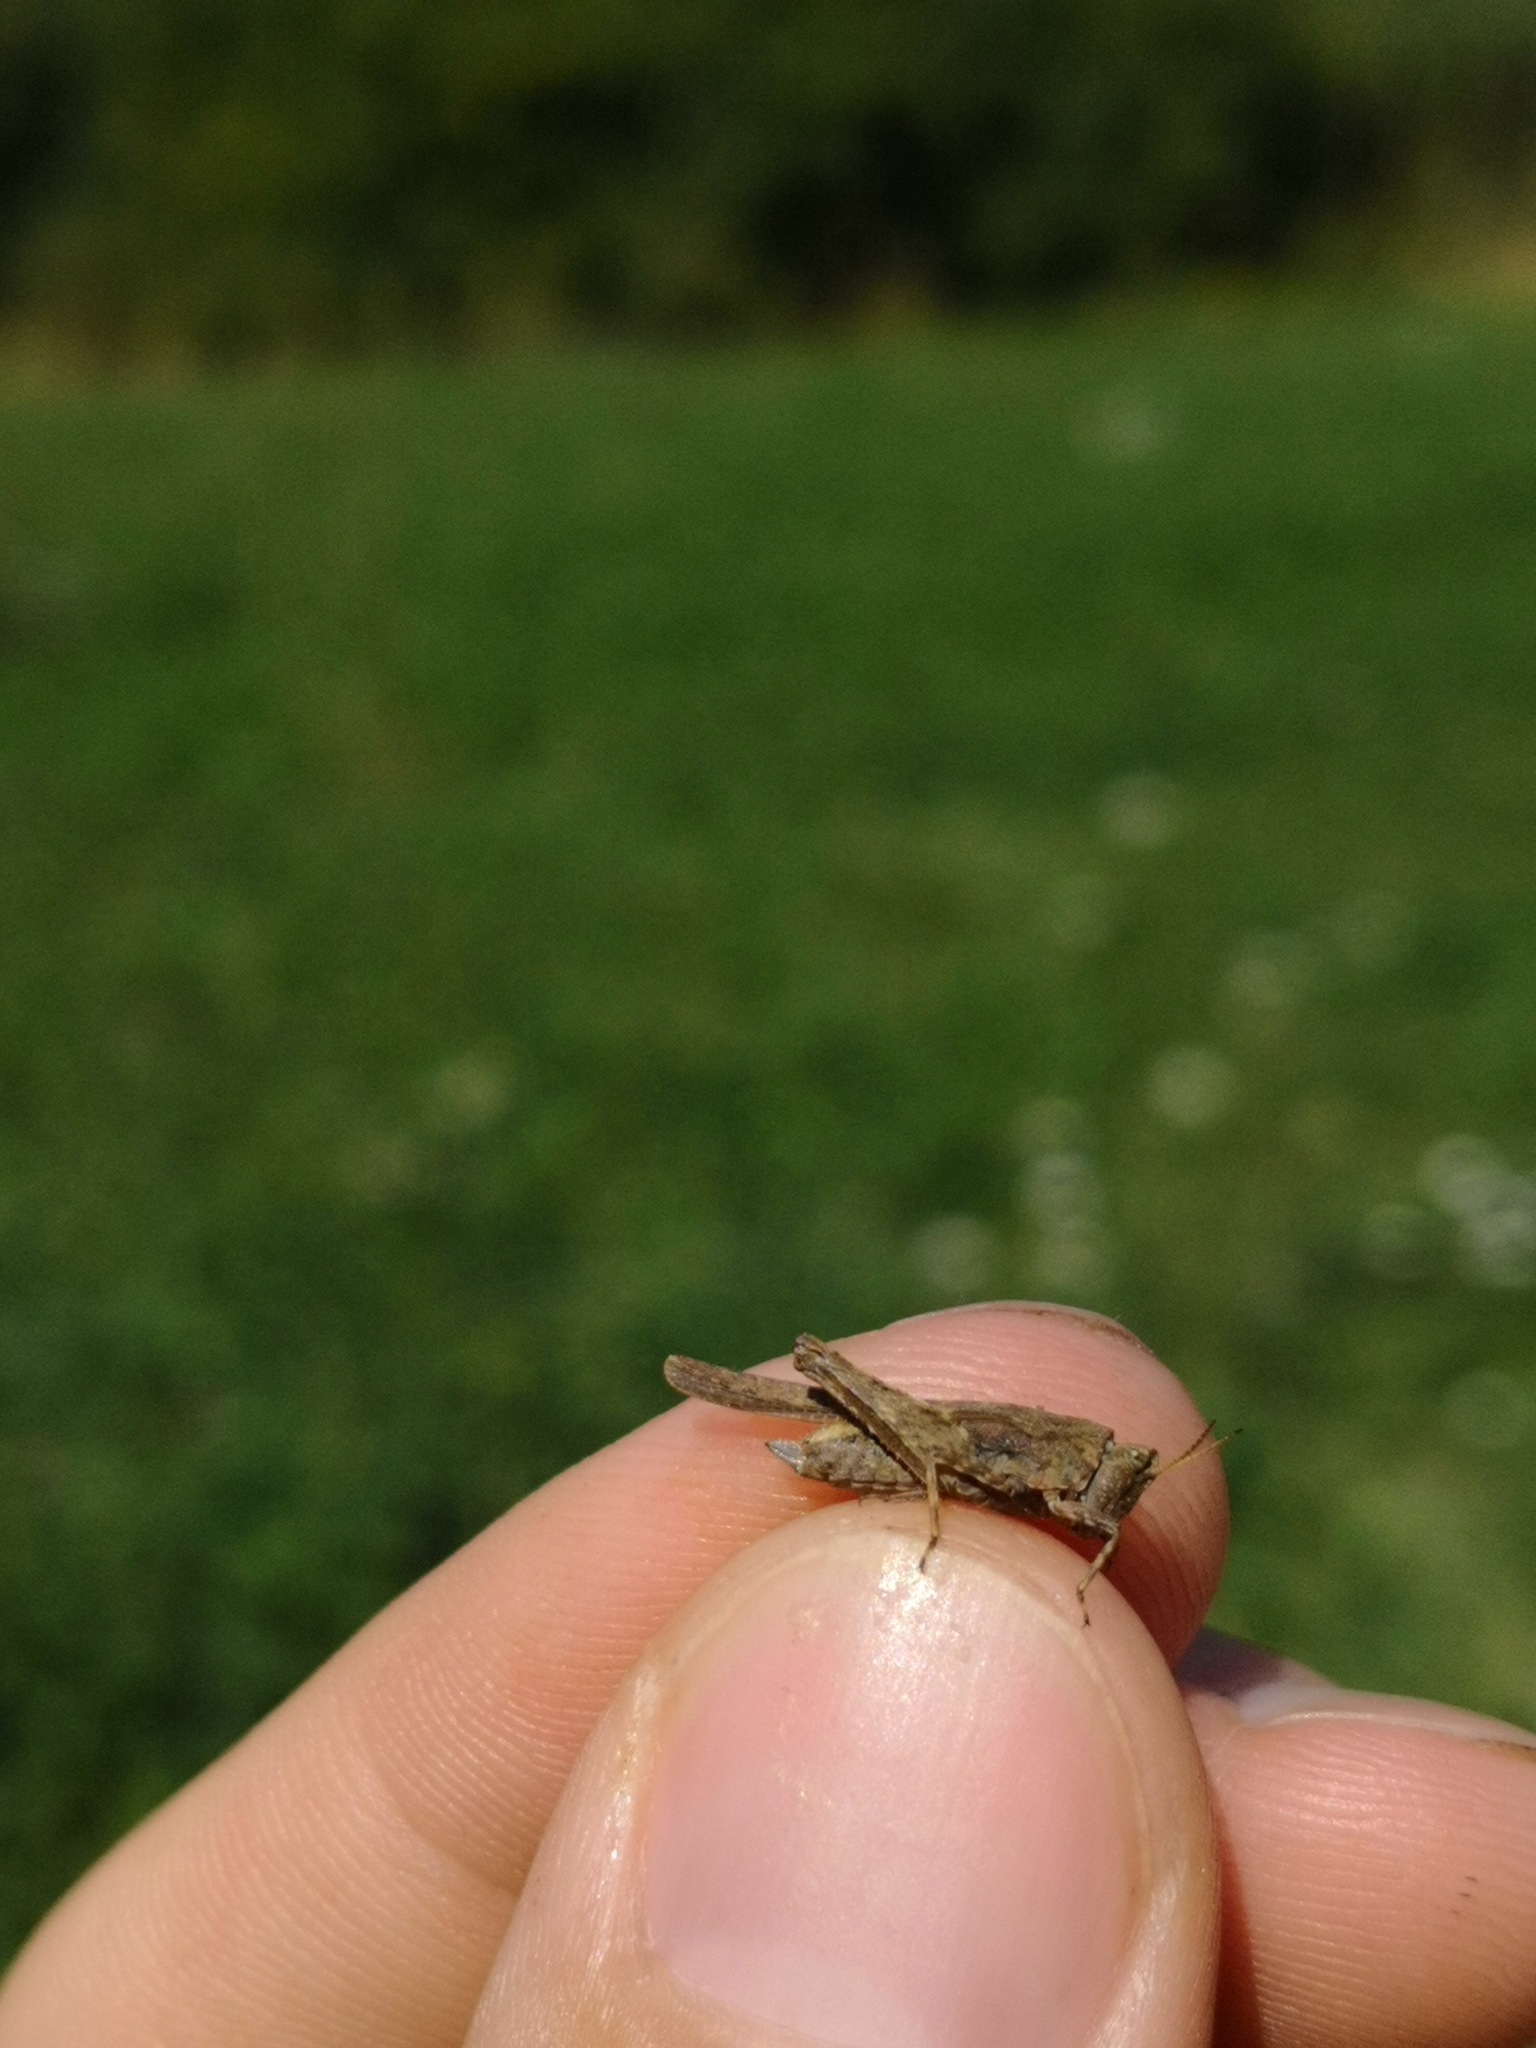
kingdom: Animalia
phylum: Arthropoda
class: Insecta
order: Orthoptera
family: Tetrigidae
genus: Tetrix
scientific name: Tetrix subulata
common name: Slender ground-hopper
